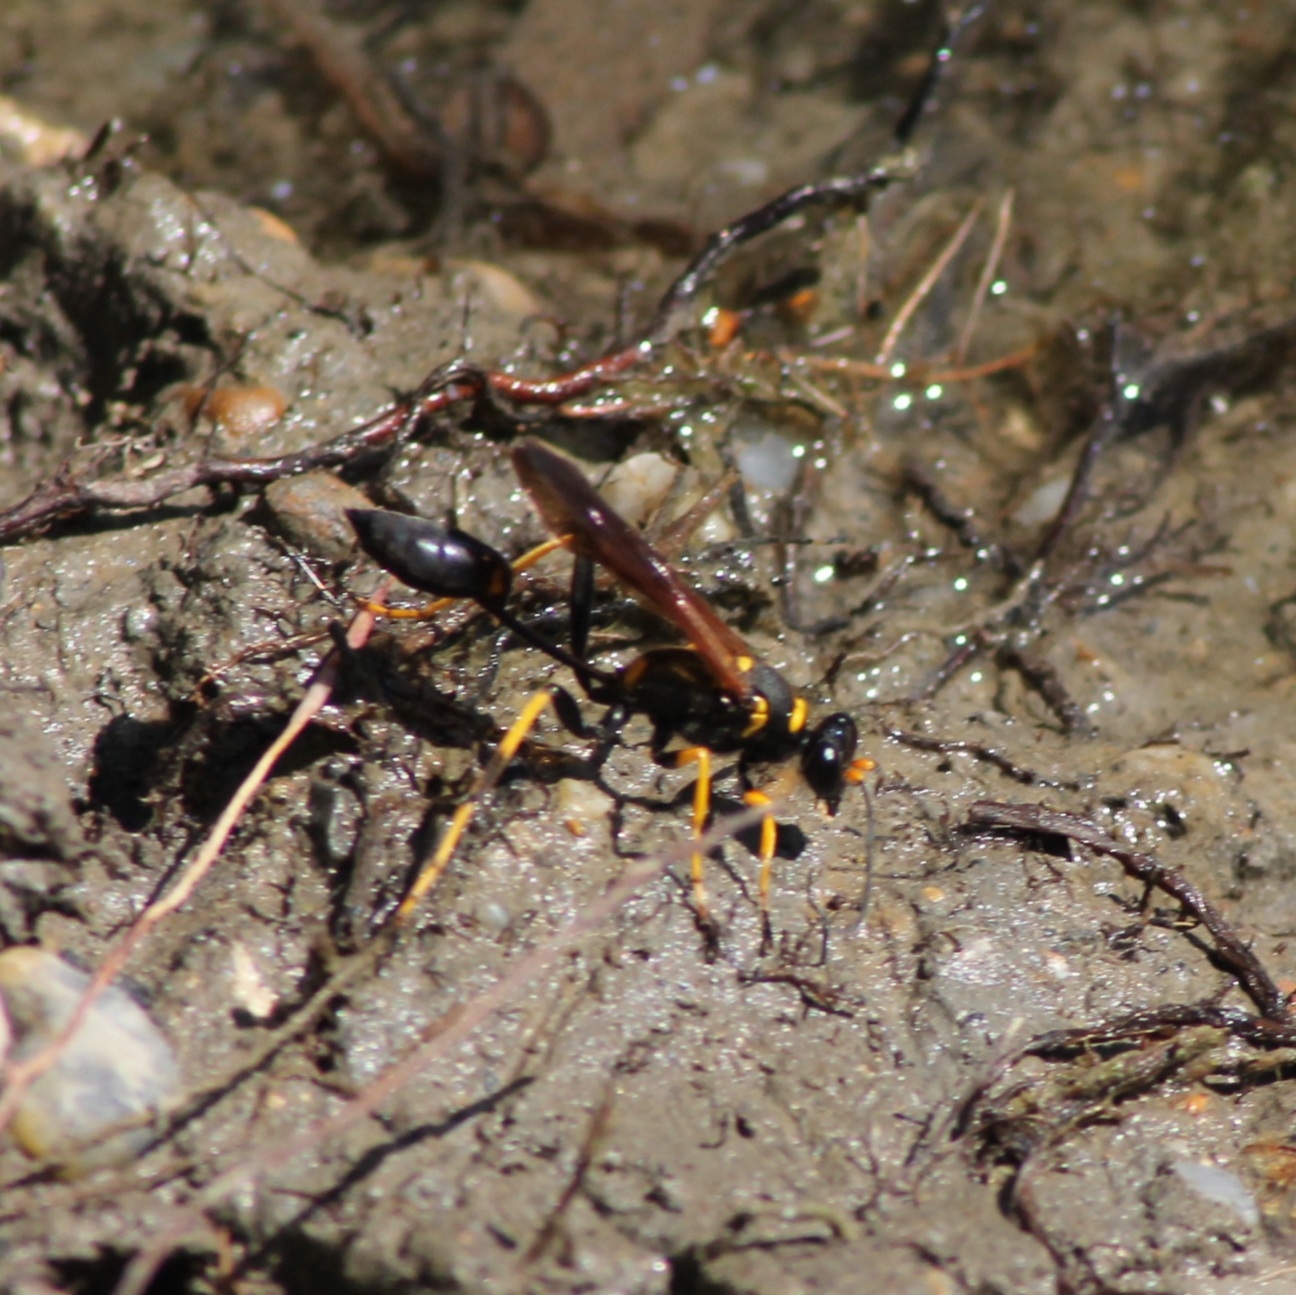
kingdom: Animalia
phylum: Arthropoda
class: Insecta
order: Hymenoptera
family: Sphecidae
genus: Sceliphron
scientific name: Sceliphron caementarium
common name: Mud dauber
